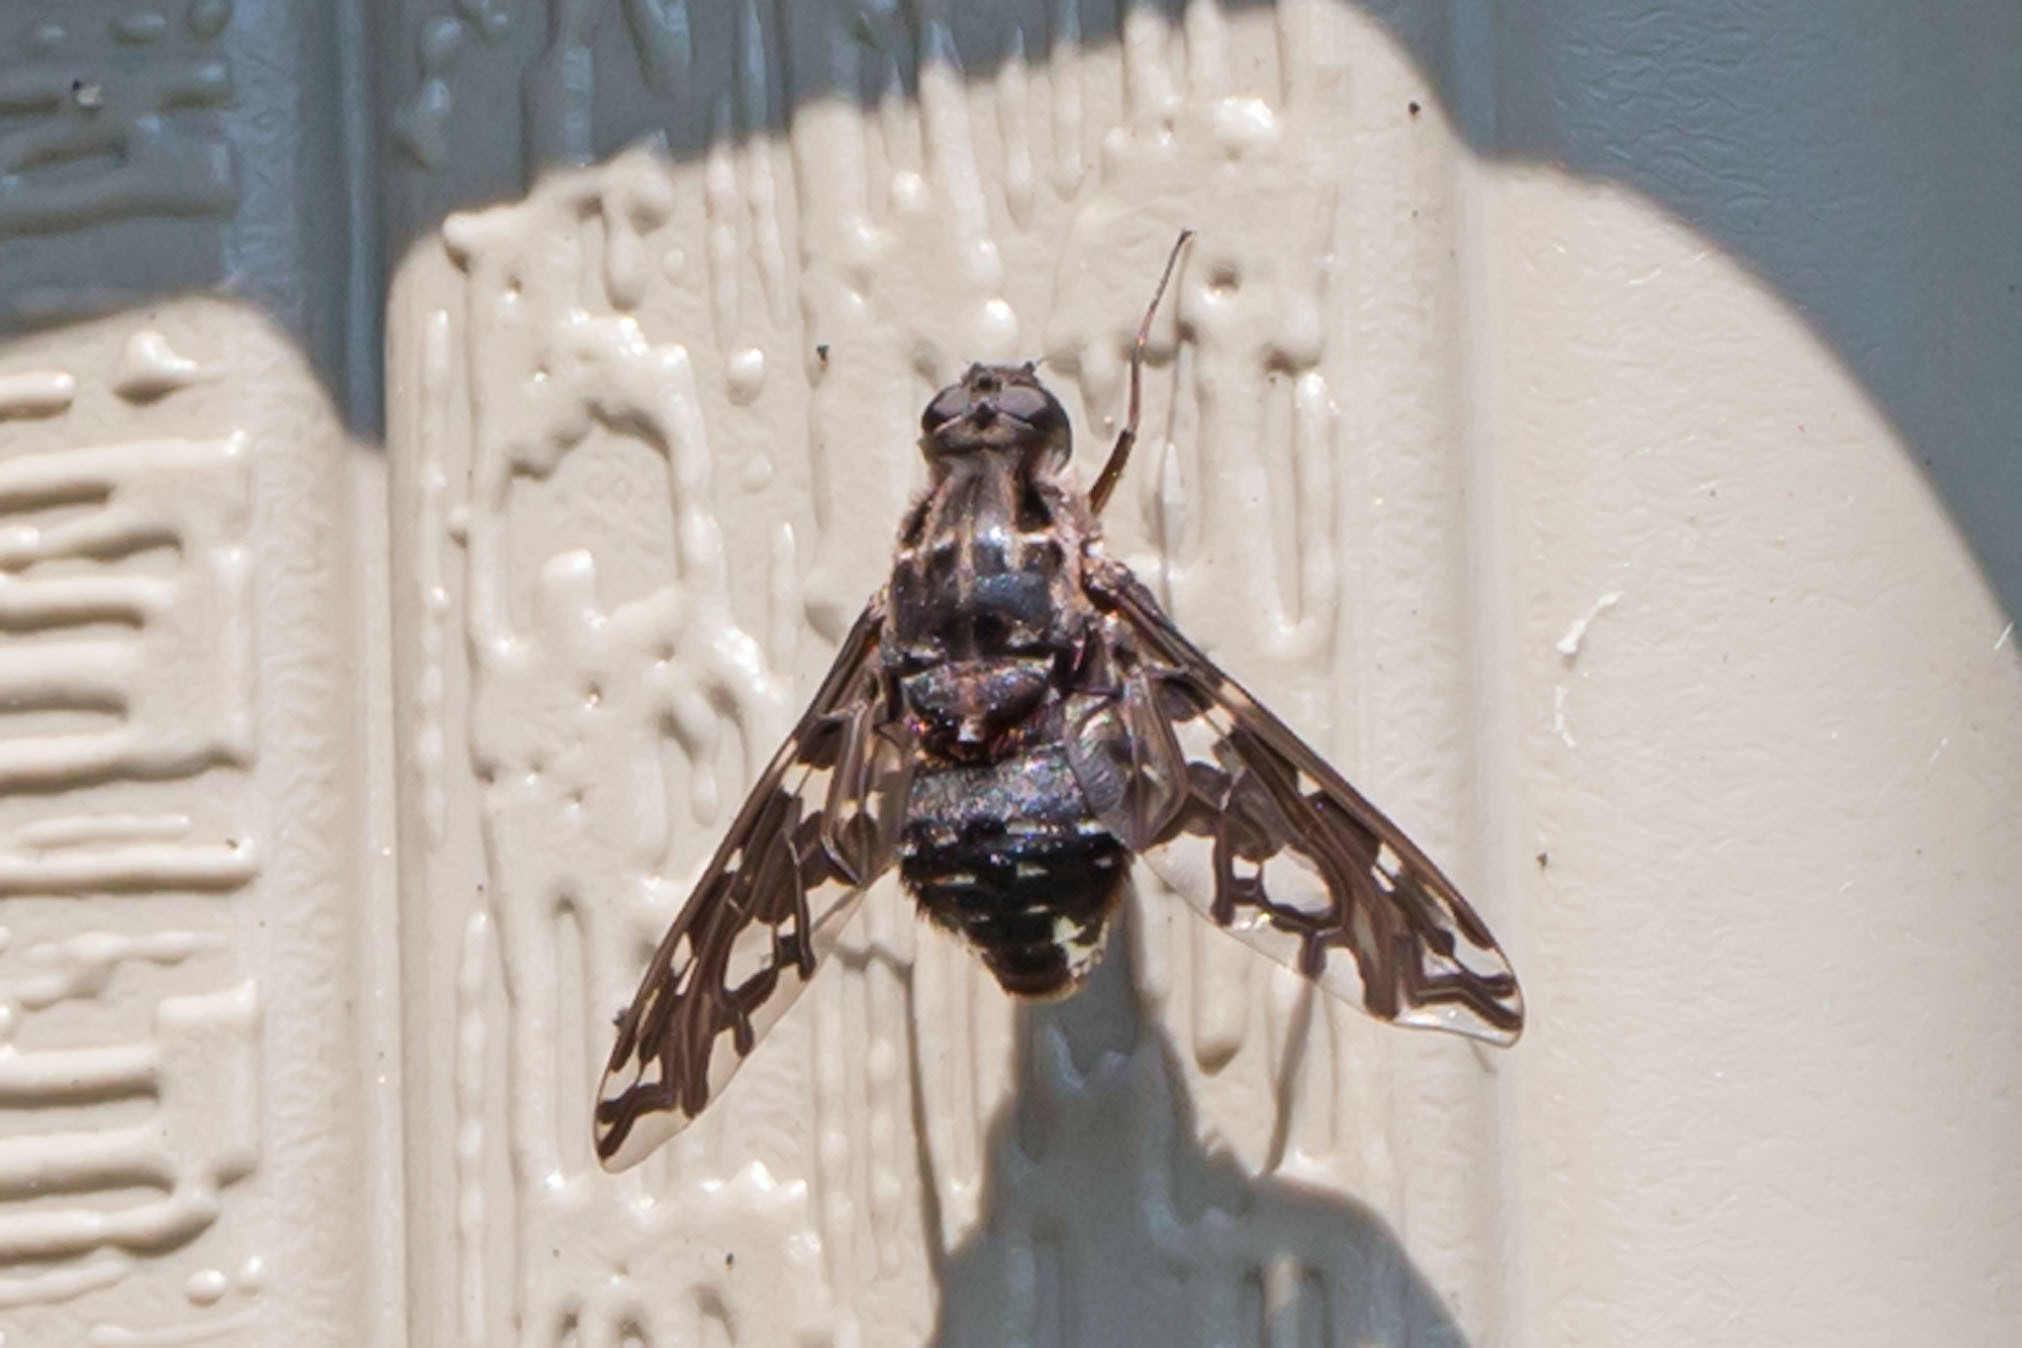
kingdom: Animalia
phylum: Arthropoda
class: Insecta
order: Diptera
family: Bombyliidae
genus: Xenox
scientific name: Xenox tigrinus
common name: Tiger bee fly
